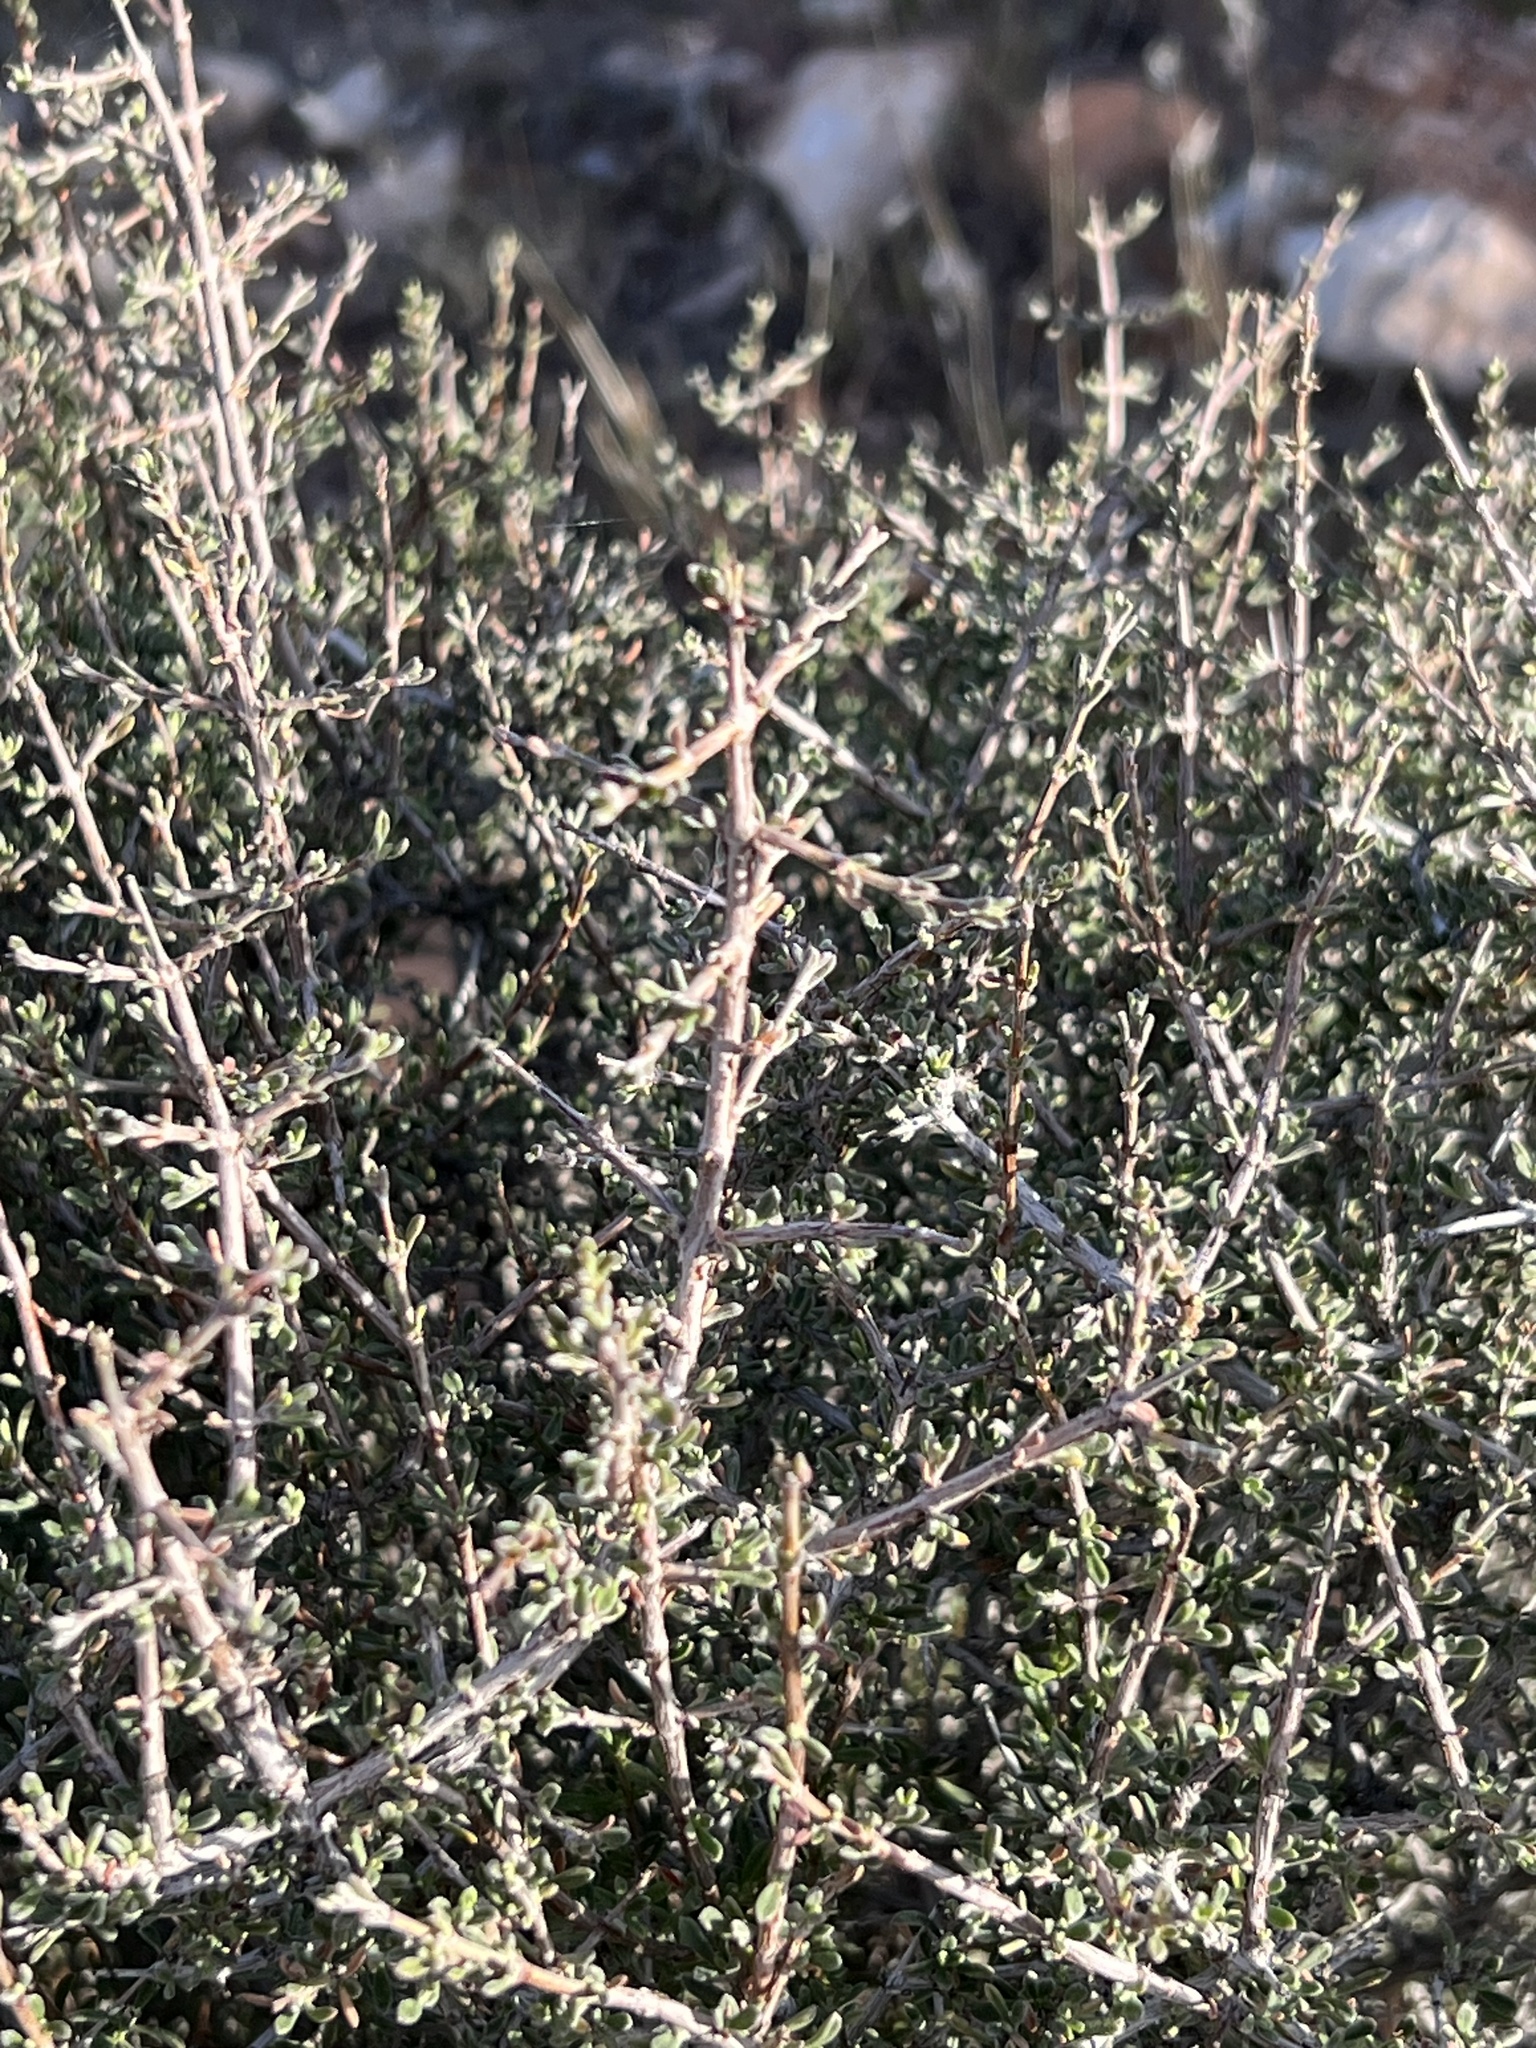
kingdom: Plantae
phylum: Tracheophyta
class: Magnoliopsida
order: Rosales
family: Rosaceae
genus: Coleogyne
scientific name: Coleogyne ramosissima
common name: Blackbrush
